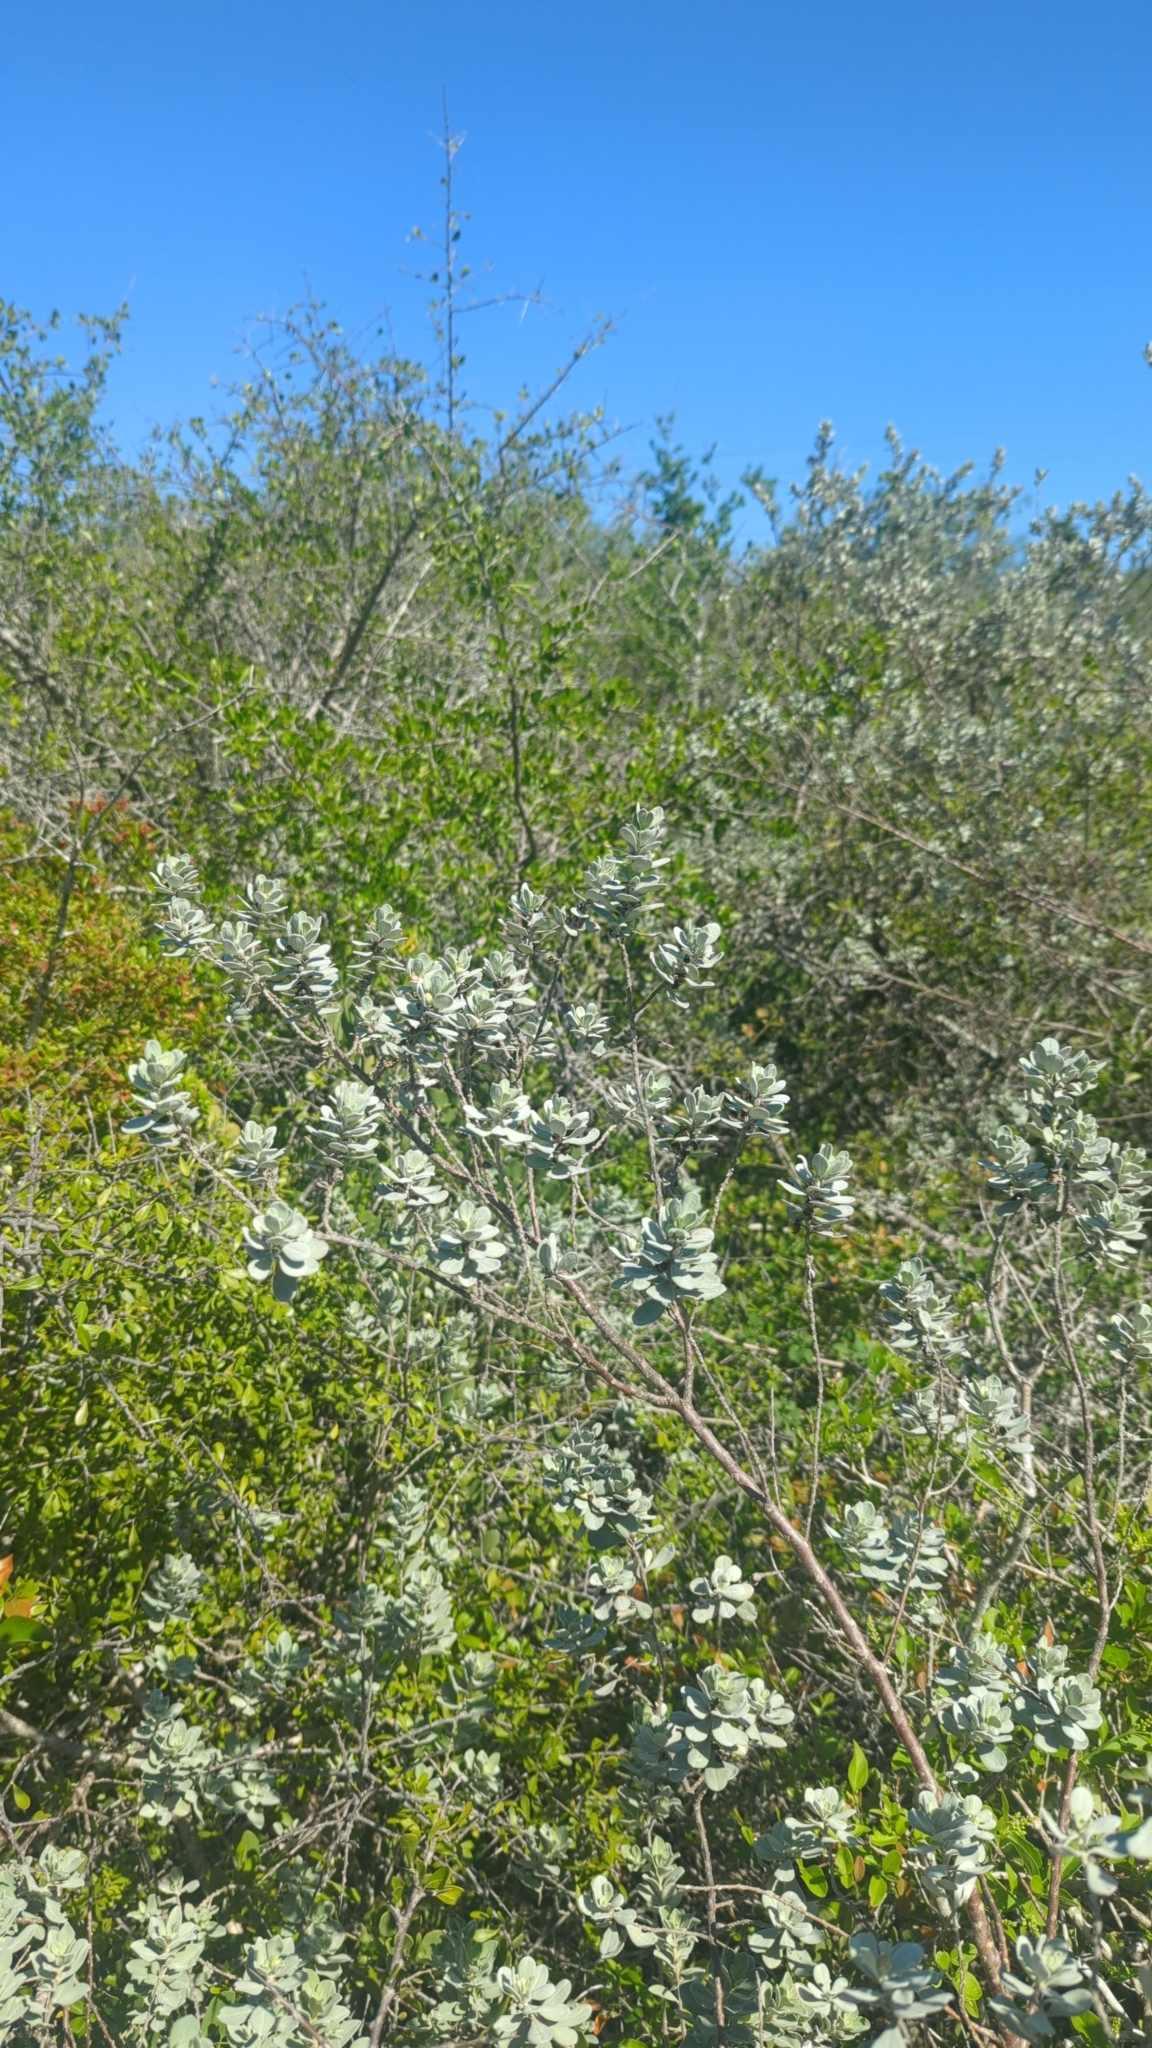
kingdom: Plantae
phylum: Tracheophyta
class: Magnoliopsida
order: Lamiales
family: Scrophulariaceae
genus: Leucophyllum
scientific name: Leucophyllum frutescens
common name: Texas silverleaf
